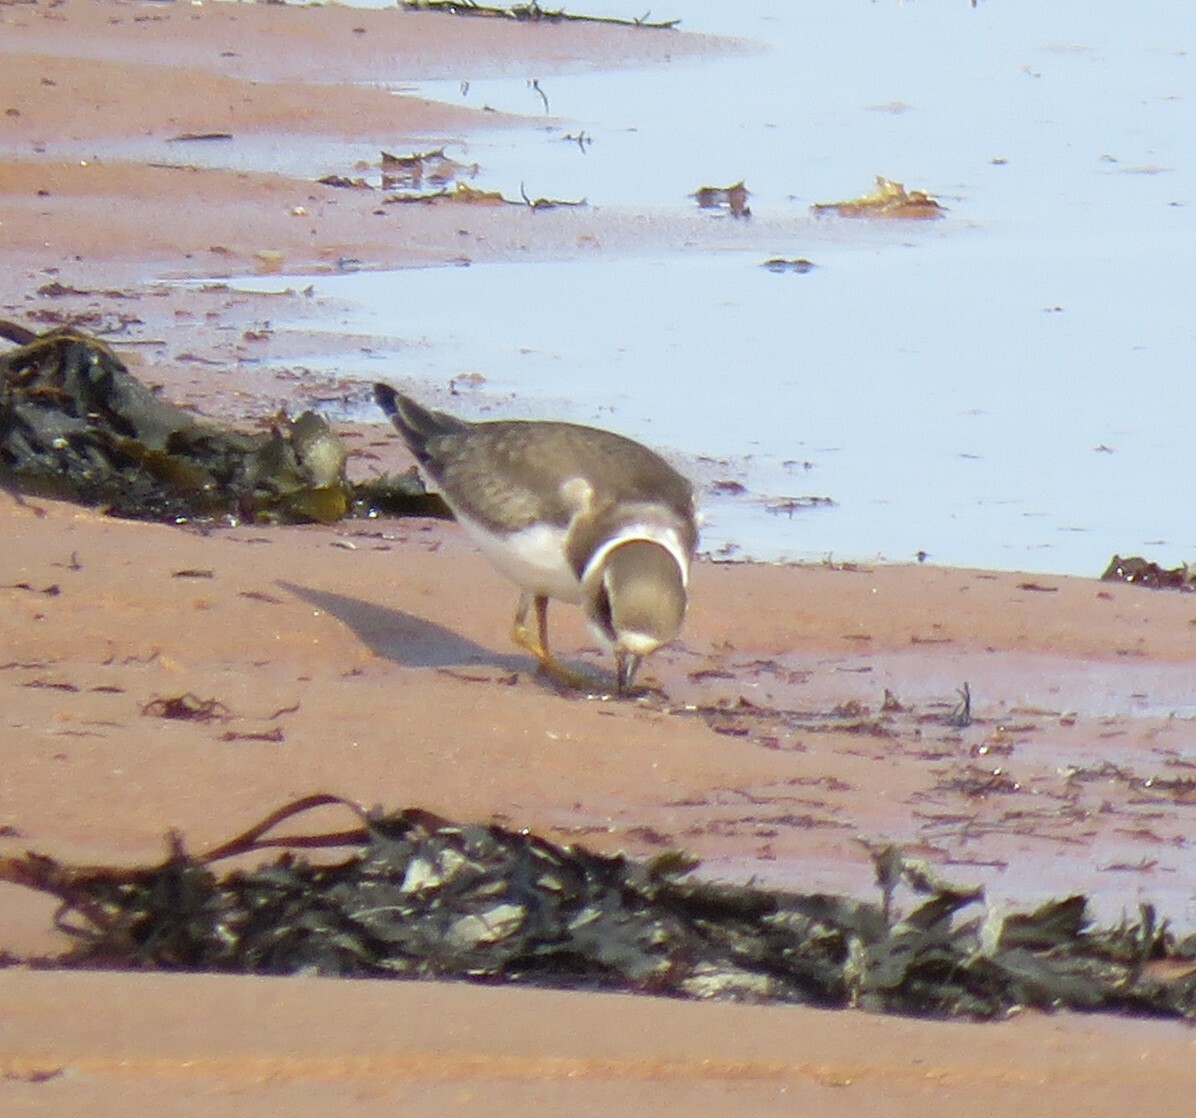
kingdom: Animalia
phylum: Chordata
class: Aves
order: Charadriiformes
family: Charadriidae
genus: Charadrius
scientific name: Charadrius semipalmatus
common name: Semipalmated plover
